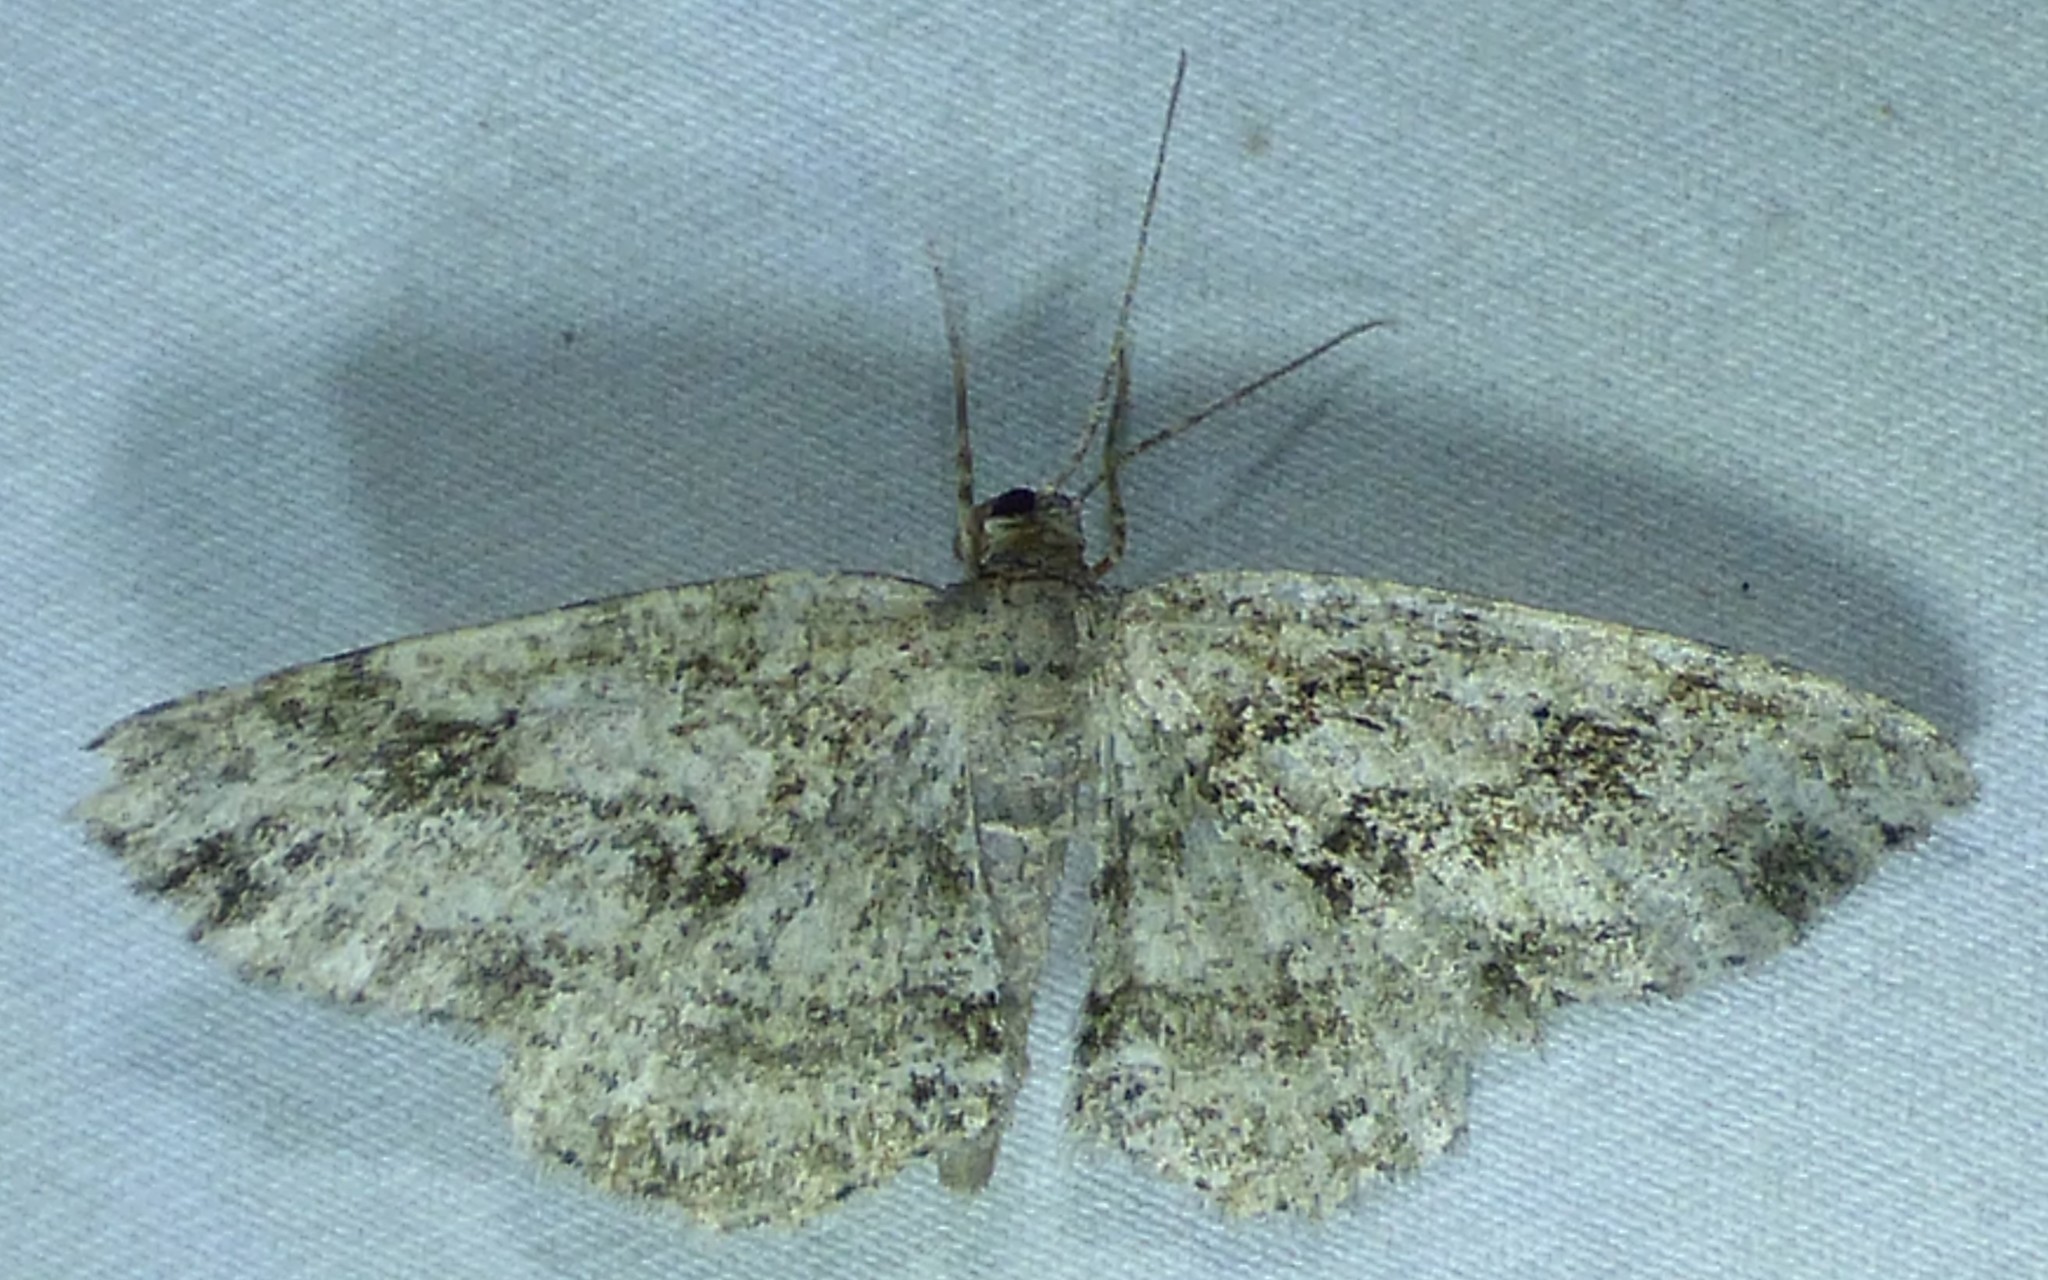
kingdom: Animalia
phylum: Arthropoda
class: Insecta
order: Lepidoptera
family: Geometridae
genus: Melanolophia
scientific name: Melanolophia signataria
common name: Signate melanolophia
